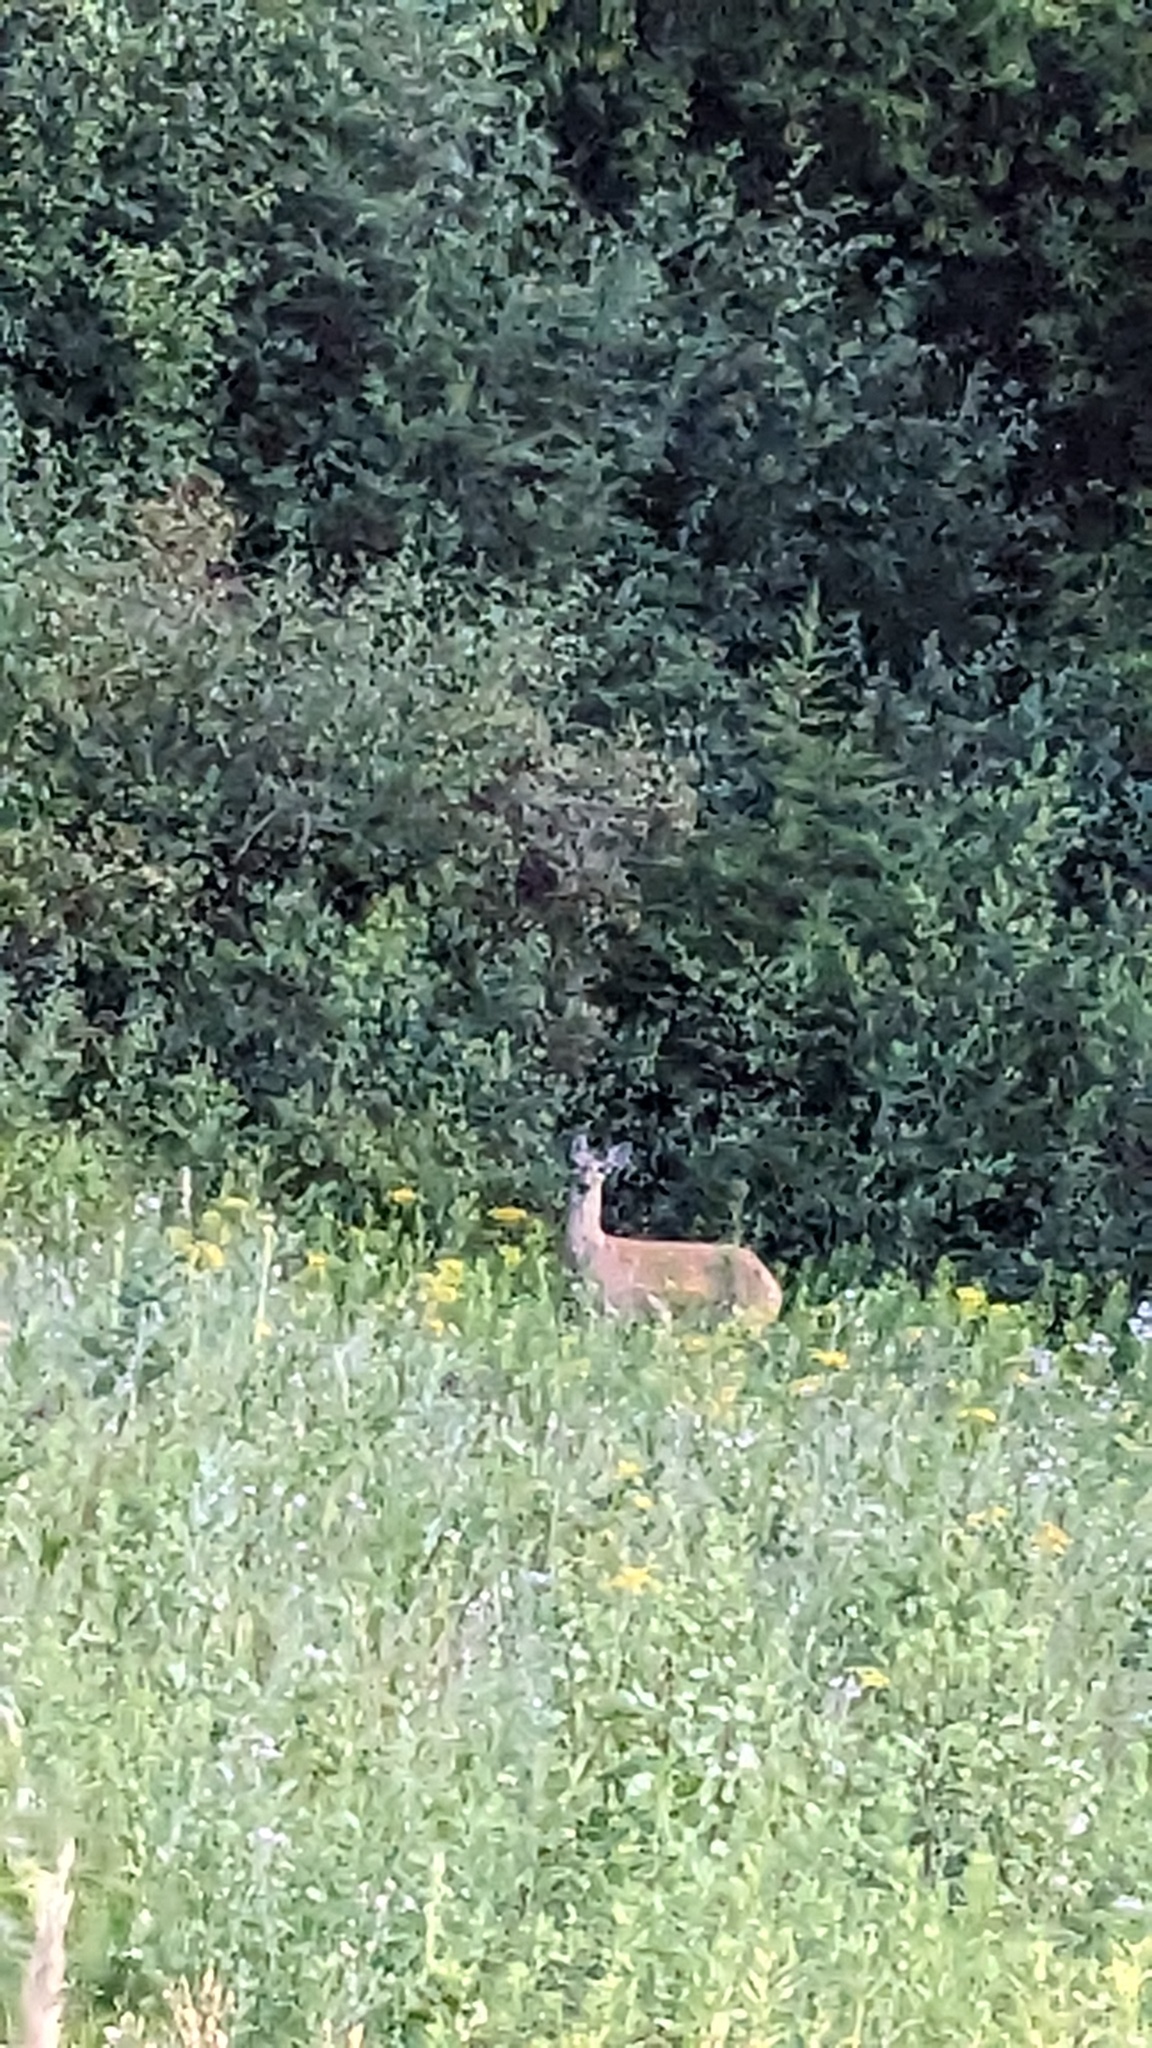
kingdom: Animalia
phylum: Chordata
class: Mammalia
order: Artiodactyla
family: Cervidae
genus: Odocoileus
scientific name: Odocoileus virginianus
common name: White-tailed deer
